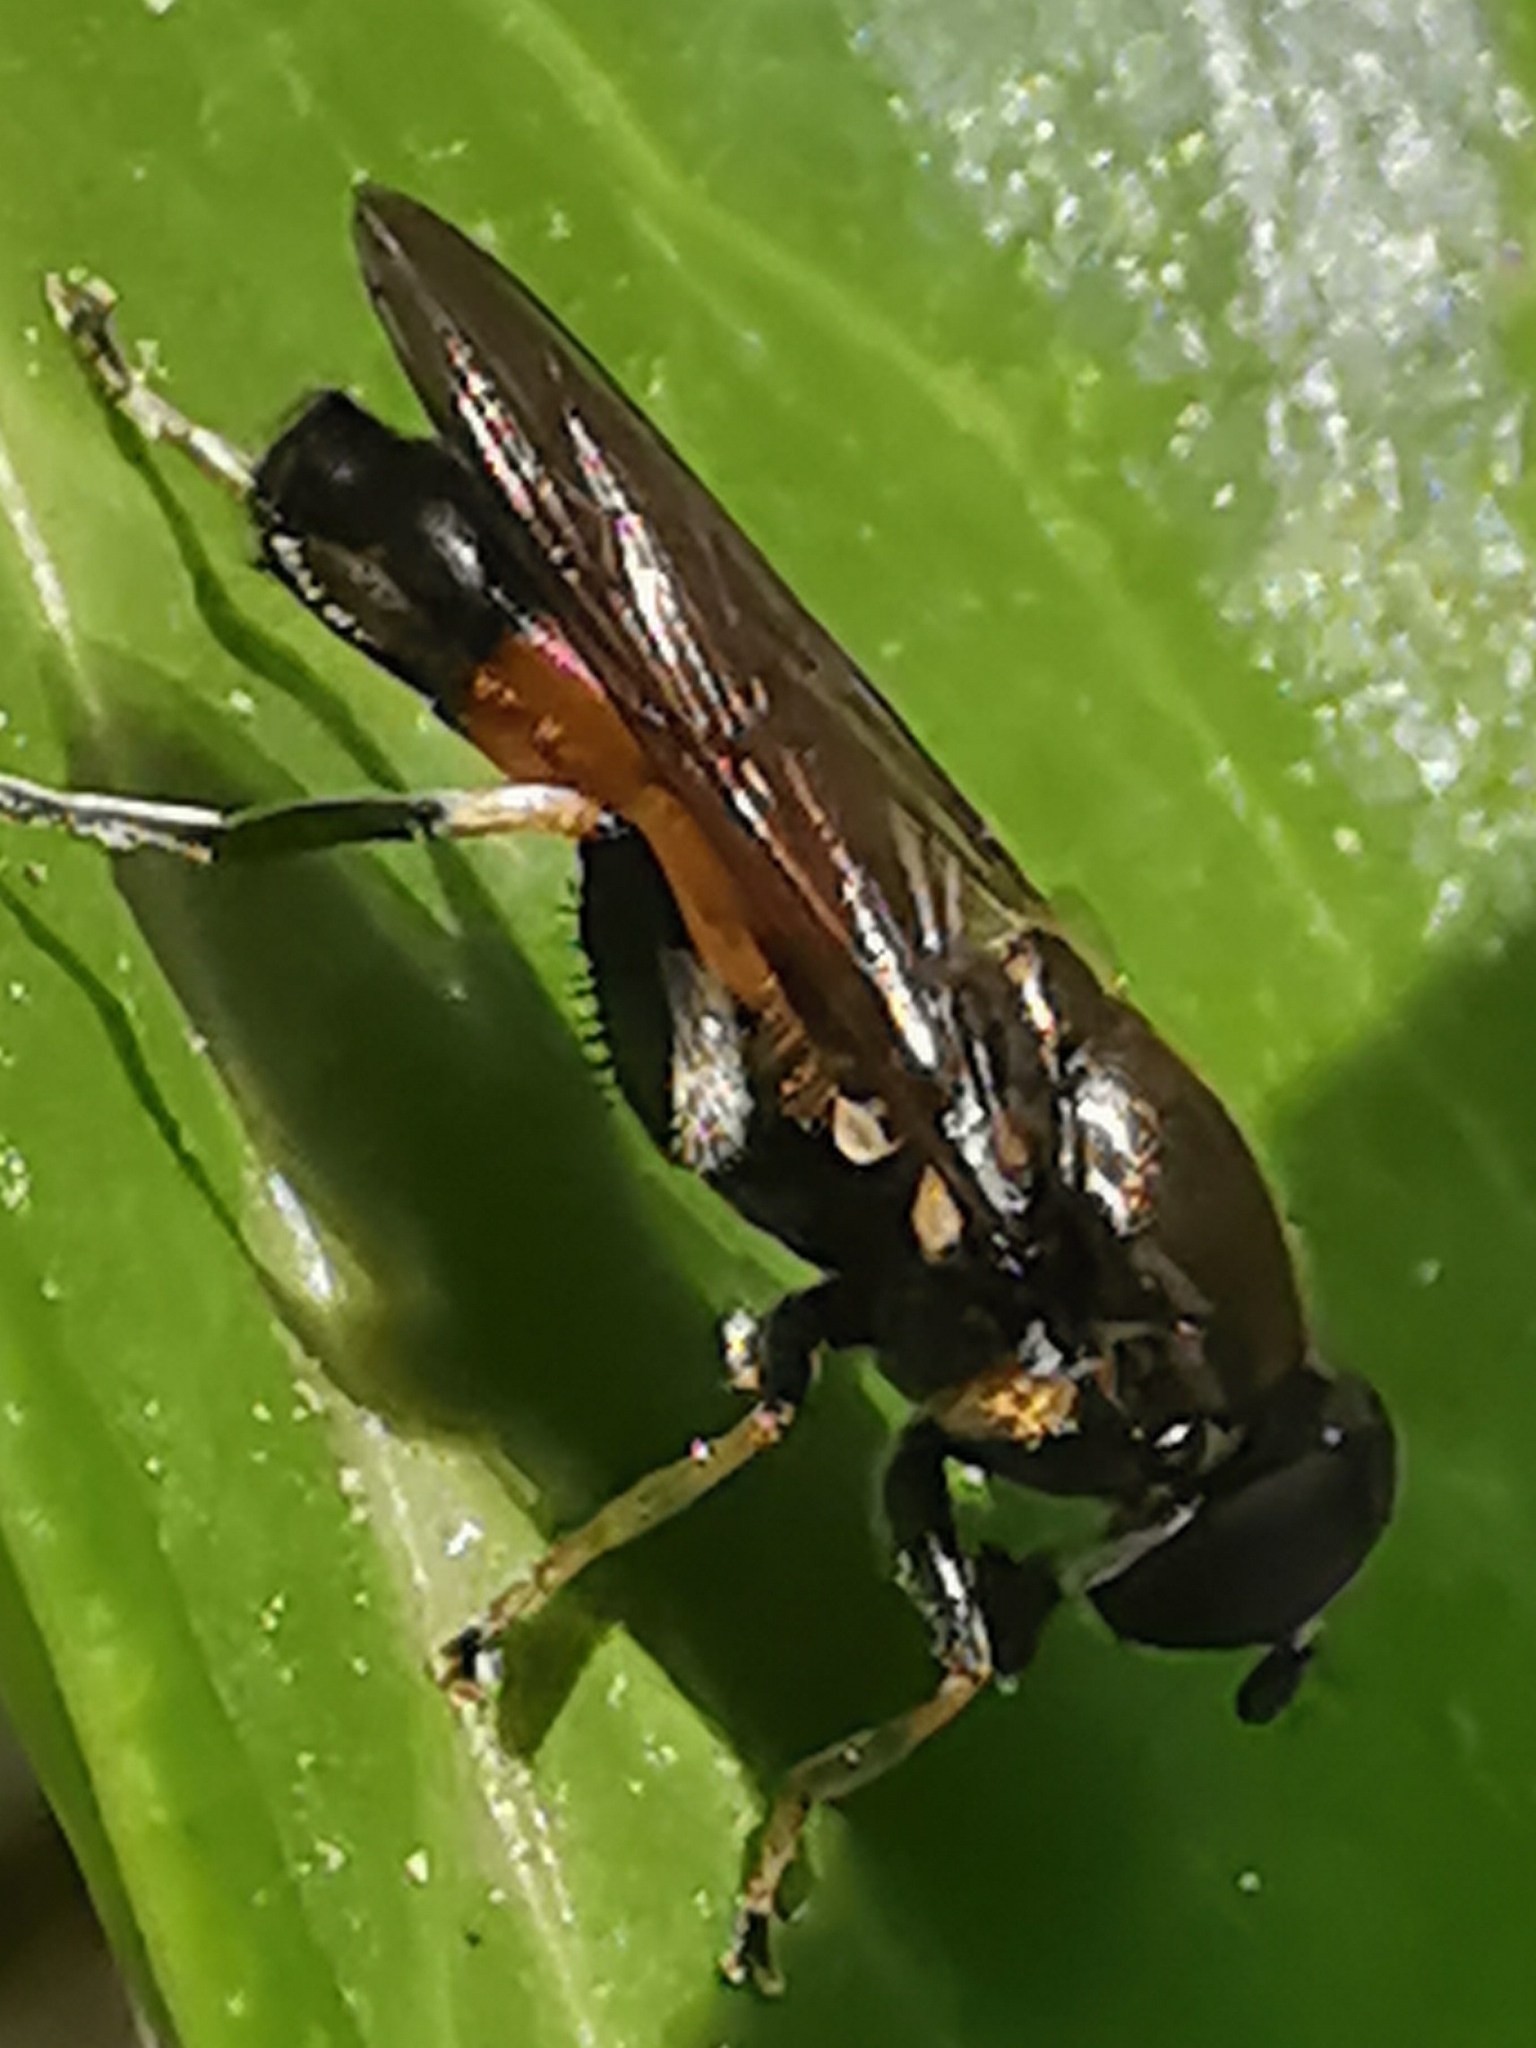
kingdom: Animalia
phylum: Arthropoda
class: Insecta
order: Diptera
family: Syrphidae
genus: Xylota
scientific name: Xylota segnis
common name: Brown-toed forest fly
